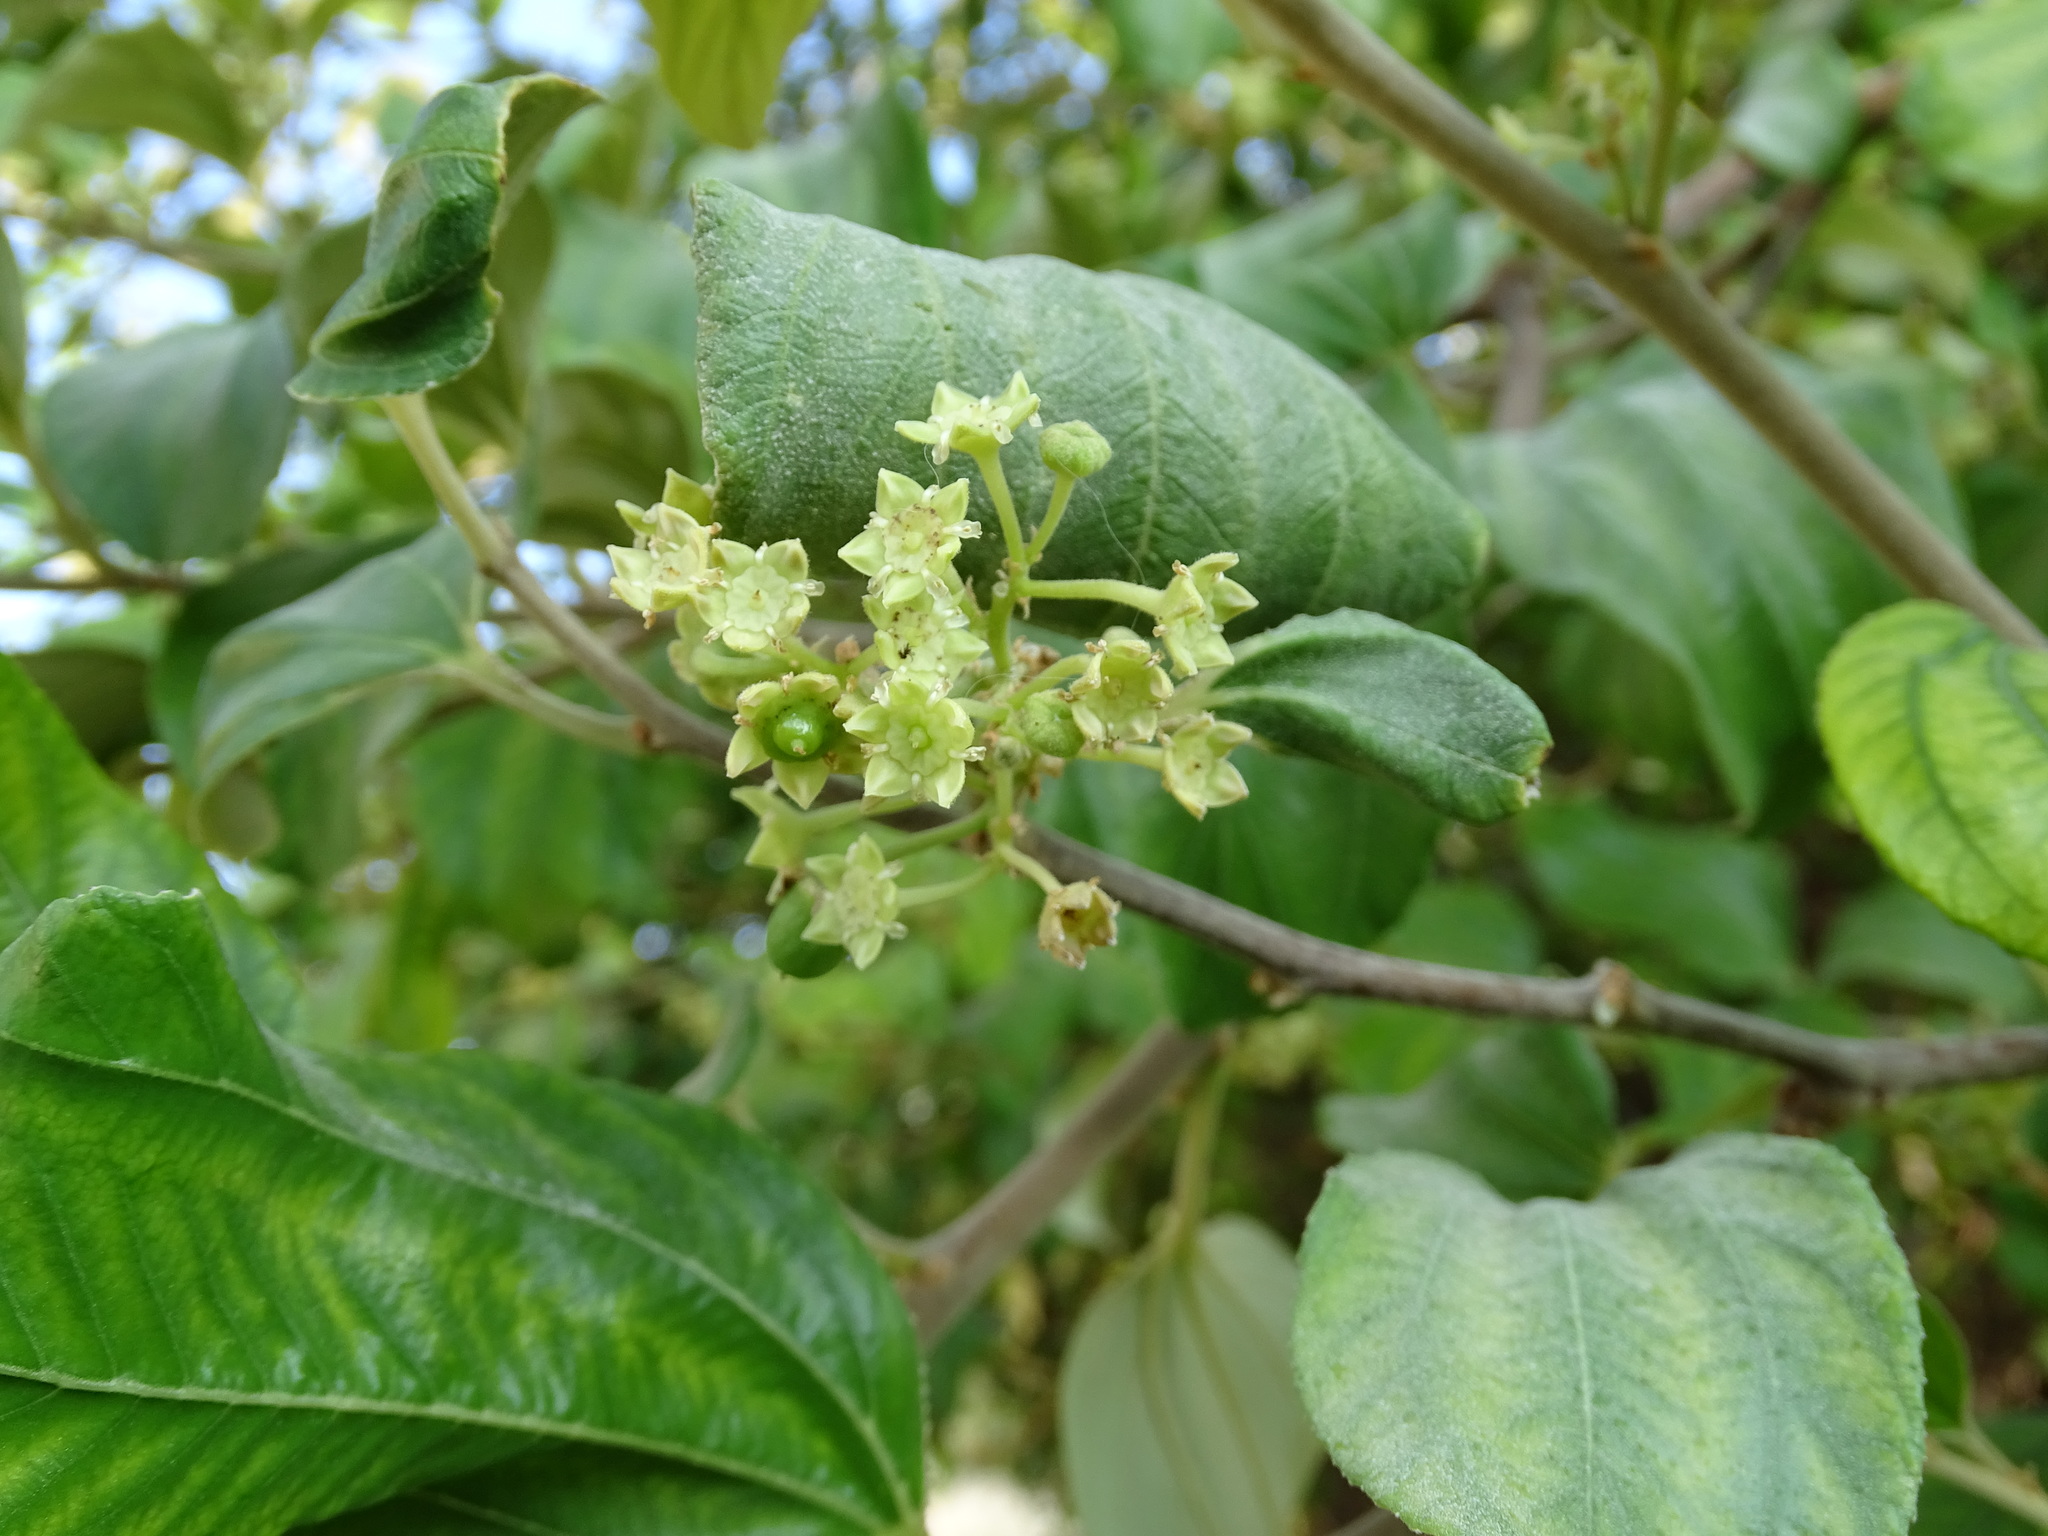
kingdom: Plantae
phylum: Tracheophyta
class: Magnoliopsida
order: Rosales
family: Rhamnaceae
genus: Ziziphus
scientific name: Ziziphus jujuba
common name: Jujube red date
